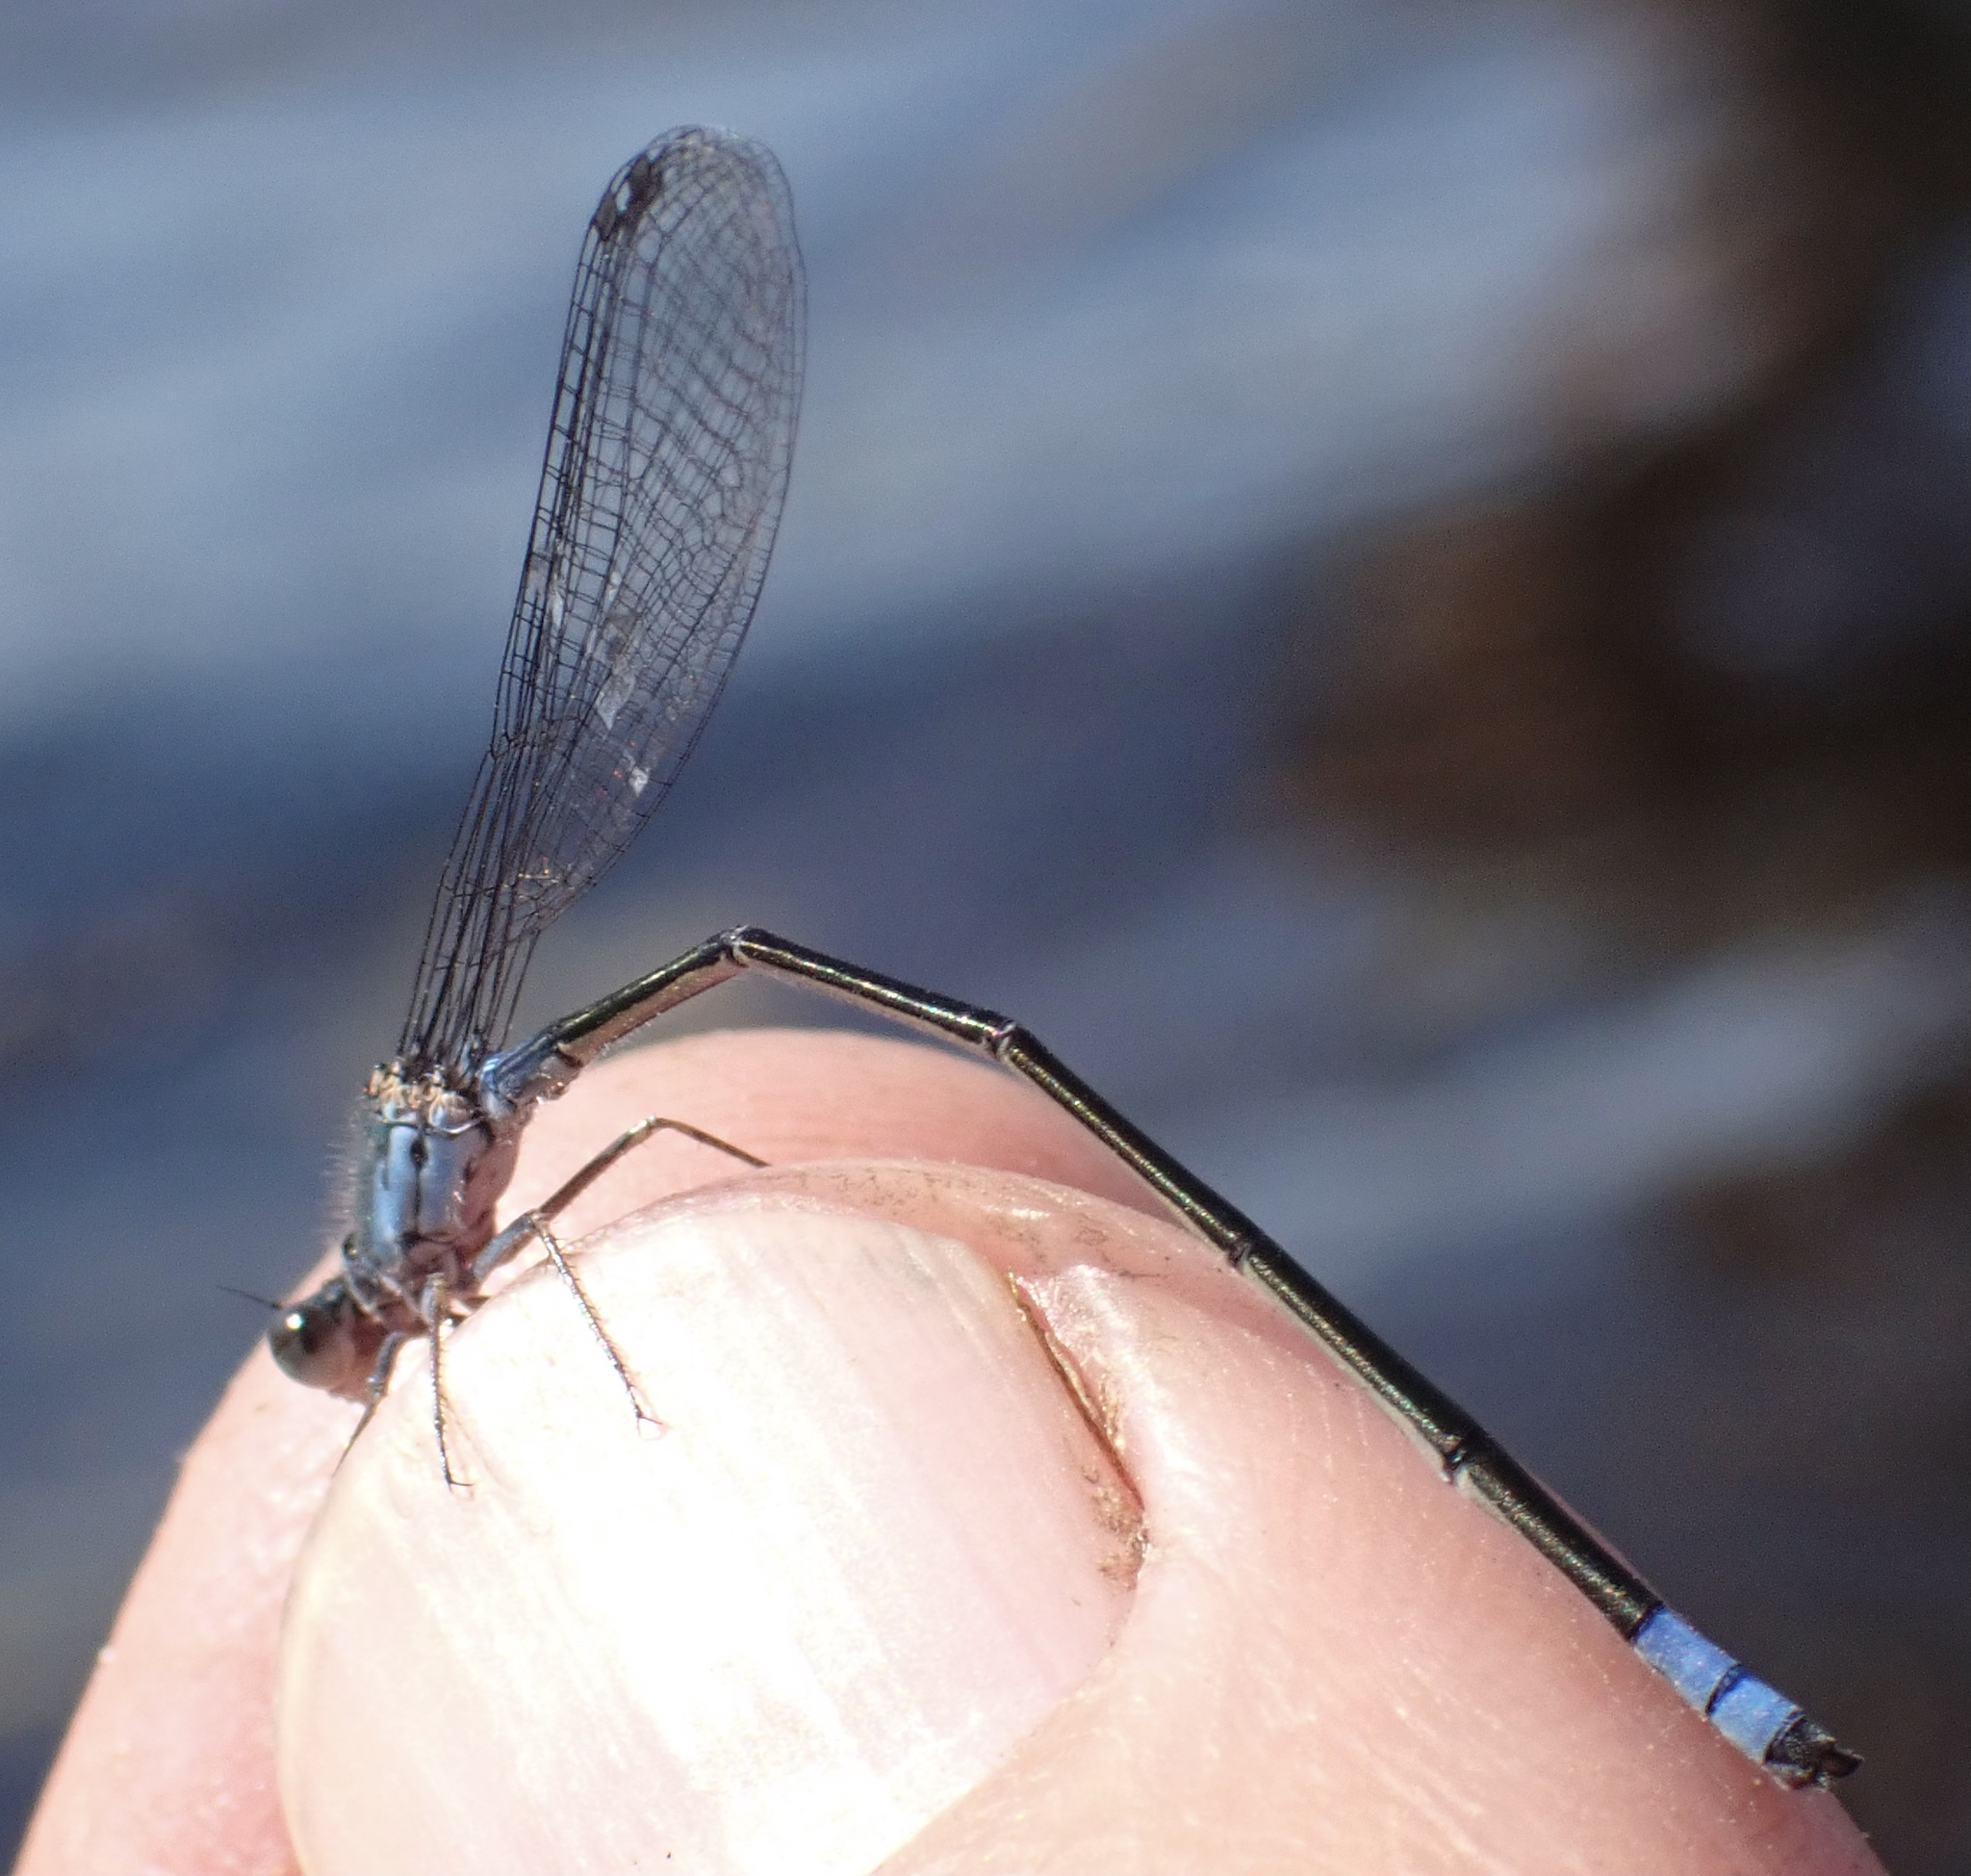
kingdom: Animalia
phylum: Arthropoda
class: Insecta
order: Odonata
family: Coenagrionidae
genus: Pseudagrion
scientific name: Pseudagrion deningi
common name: Dening's sprite
